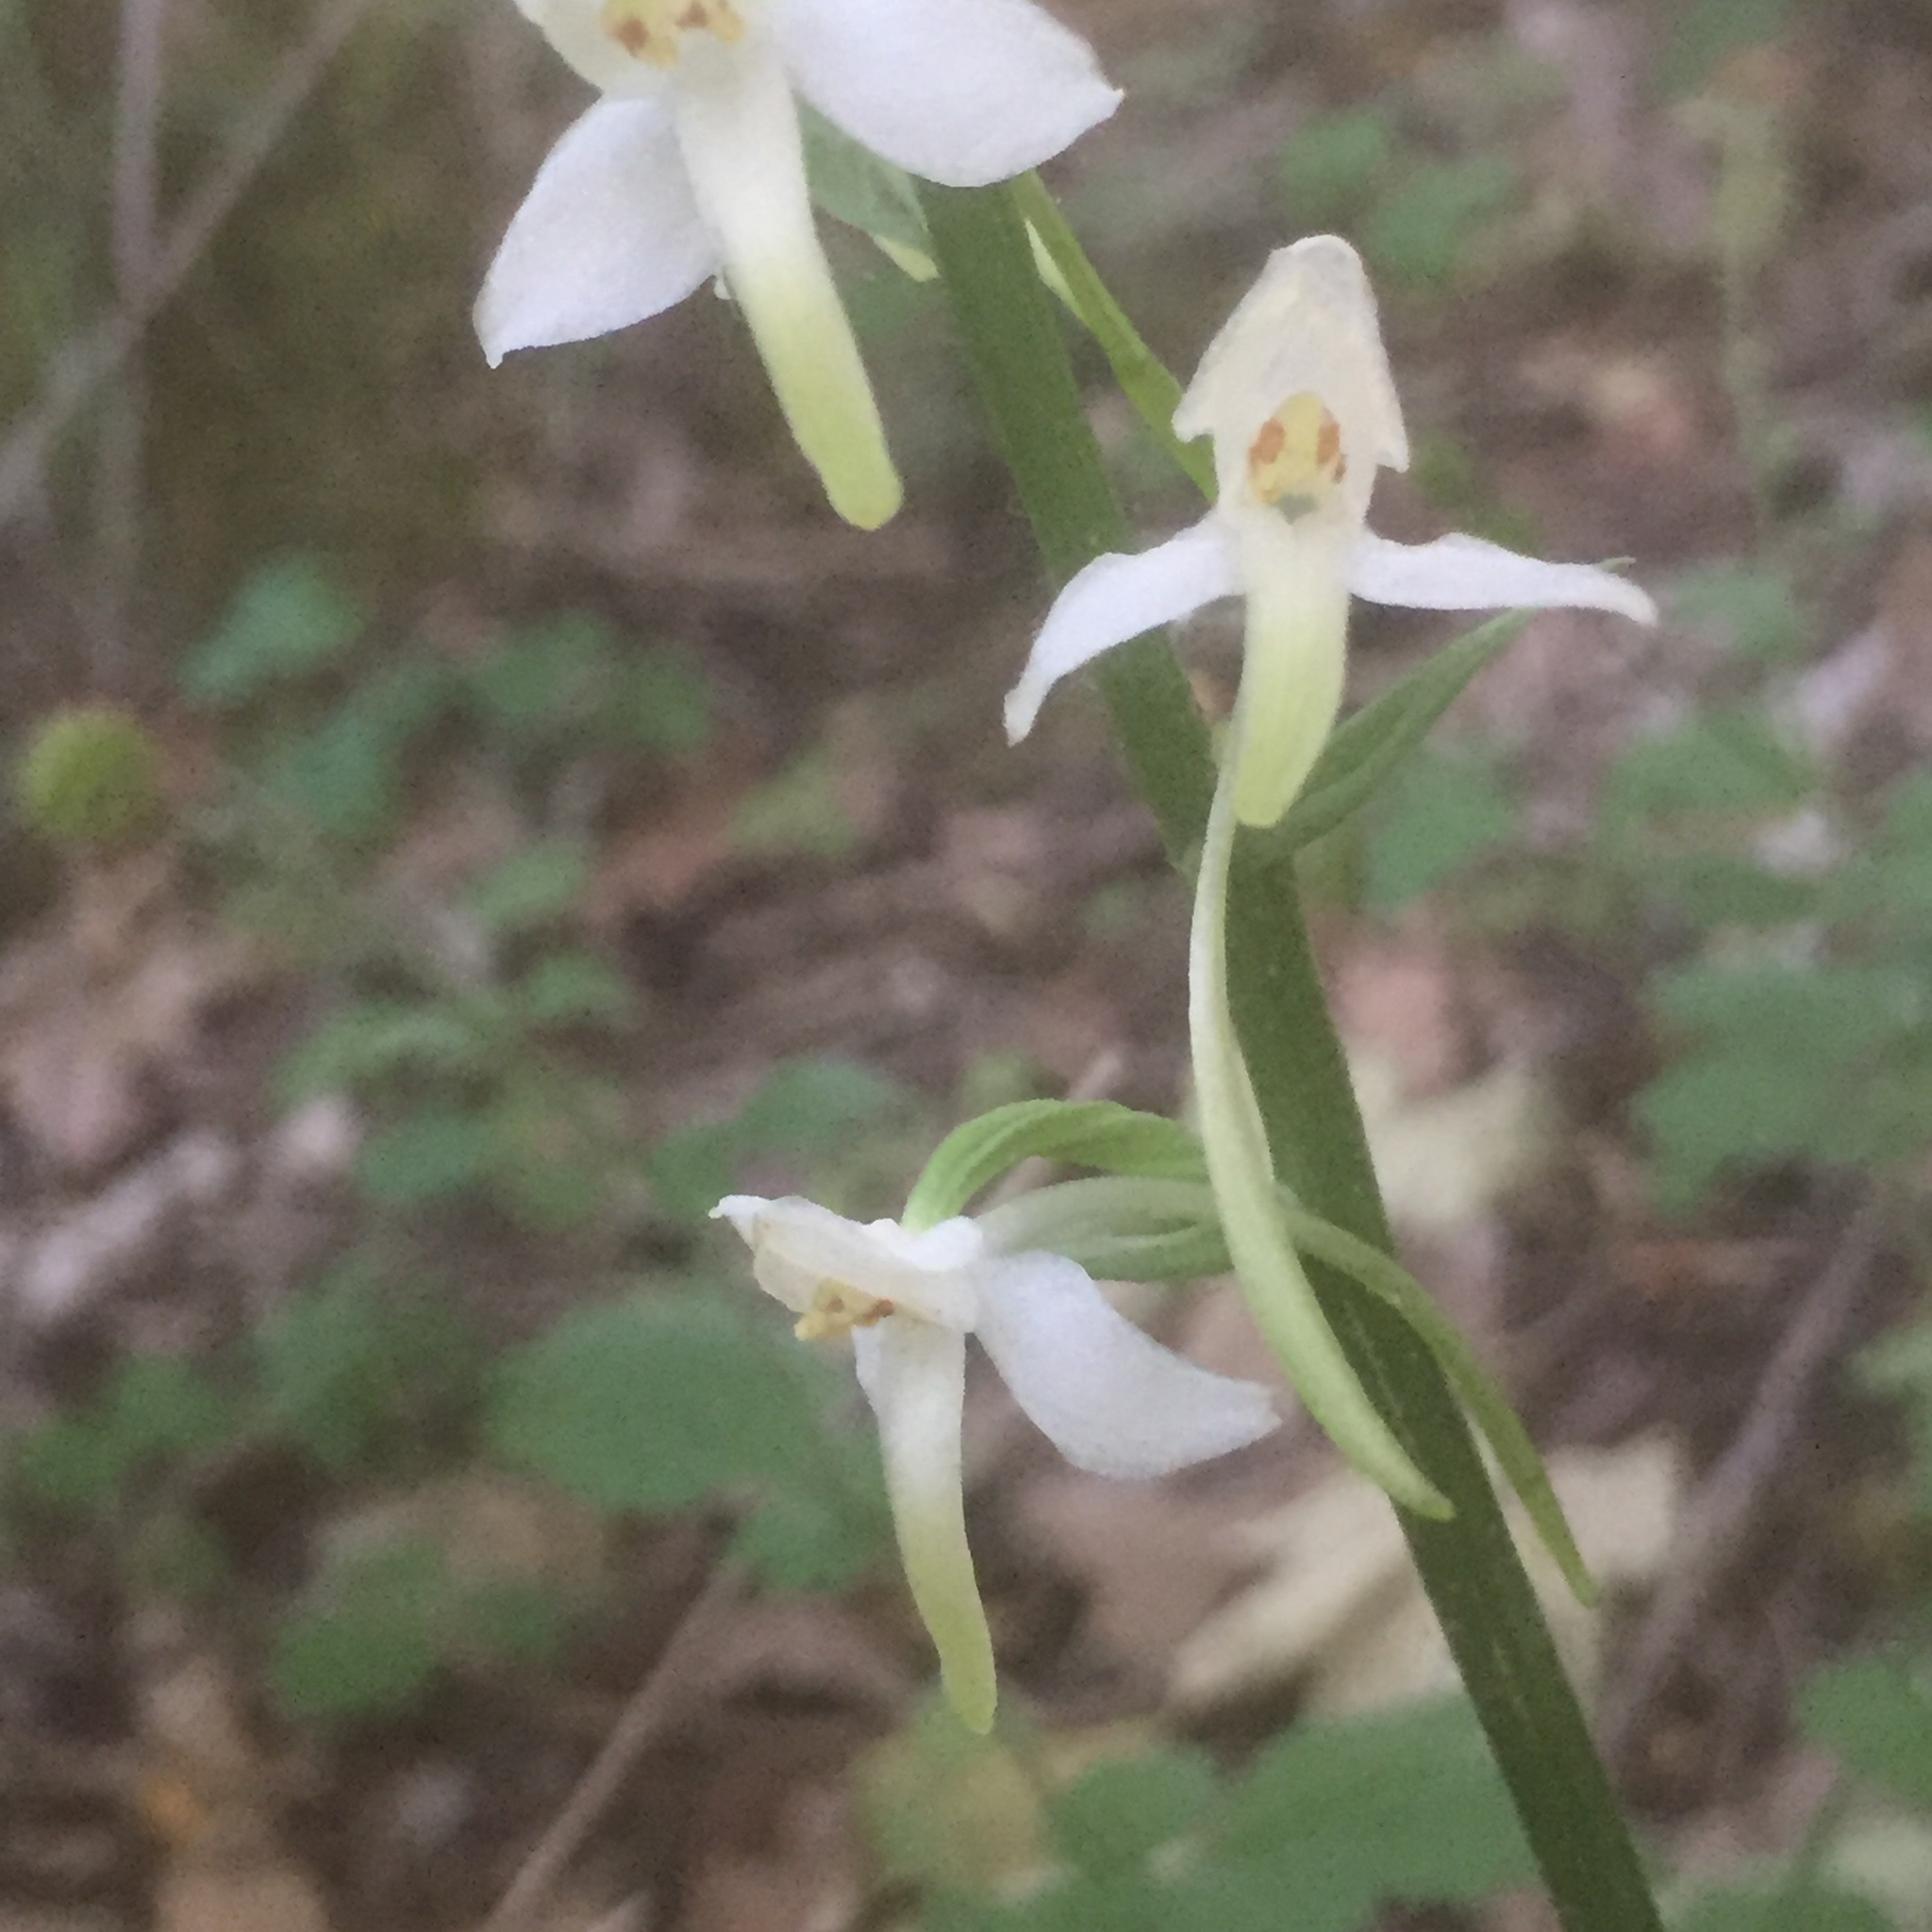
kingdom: Plantae
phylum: Tracheophyta
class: Liliopsida
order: Asparagales
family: Orchidaceae
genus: Platanthera
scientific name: Platanthera bifolia
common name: Lesser butterfly-orchid
